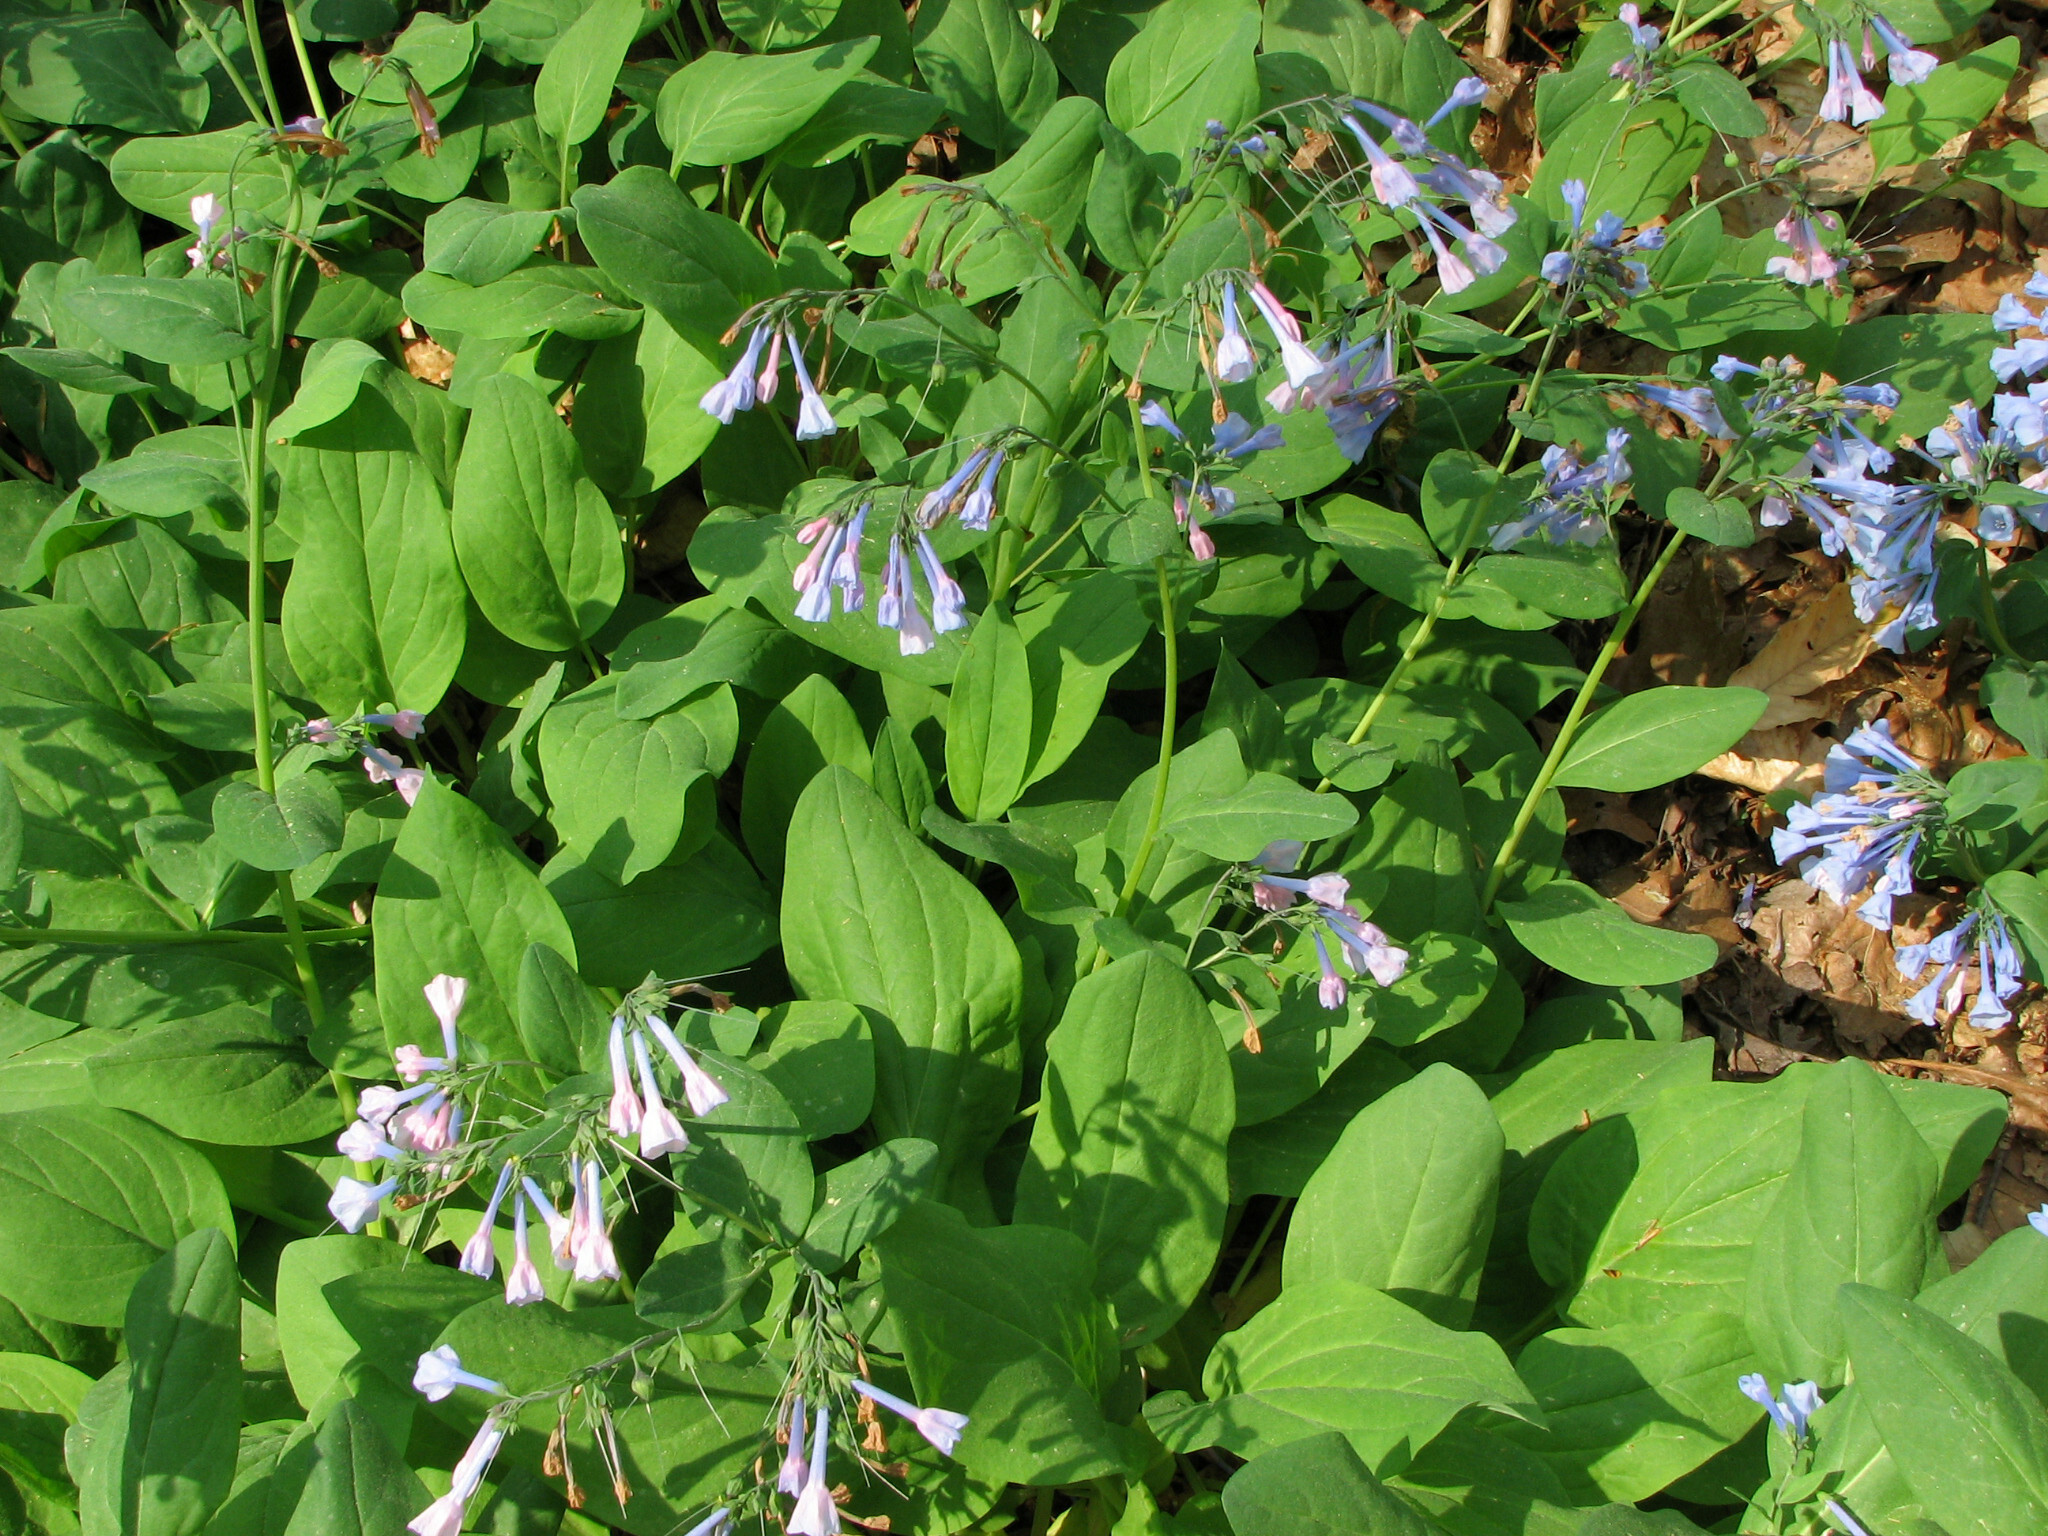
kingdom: Plantae
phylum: Tracheophyta
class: Magnoliopsida
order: Boraginales
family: Boraginaceae
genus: Mertensia
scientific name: Mertensia virginica
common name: Virginia bluebells
